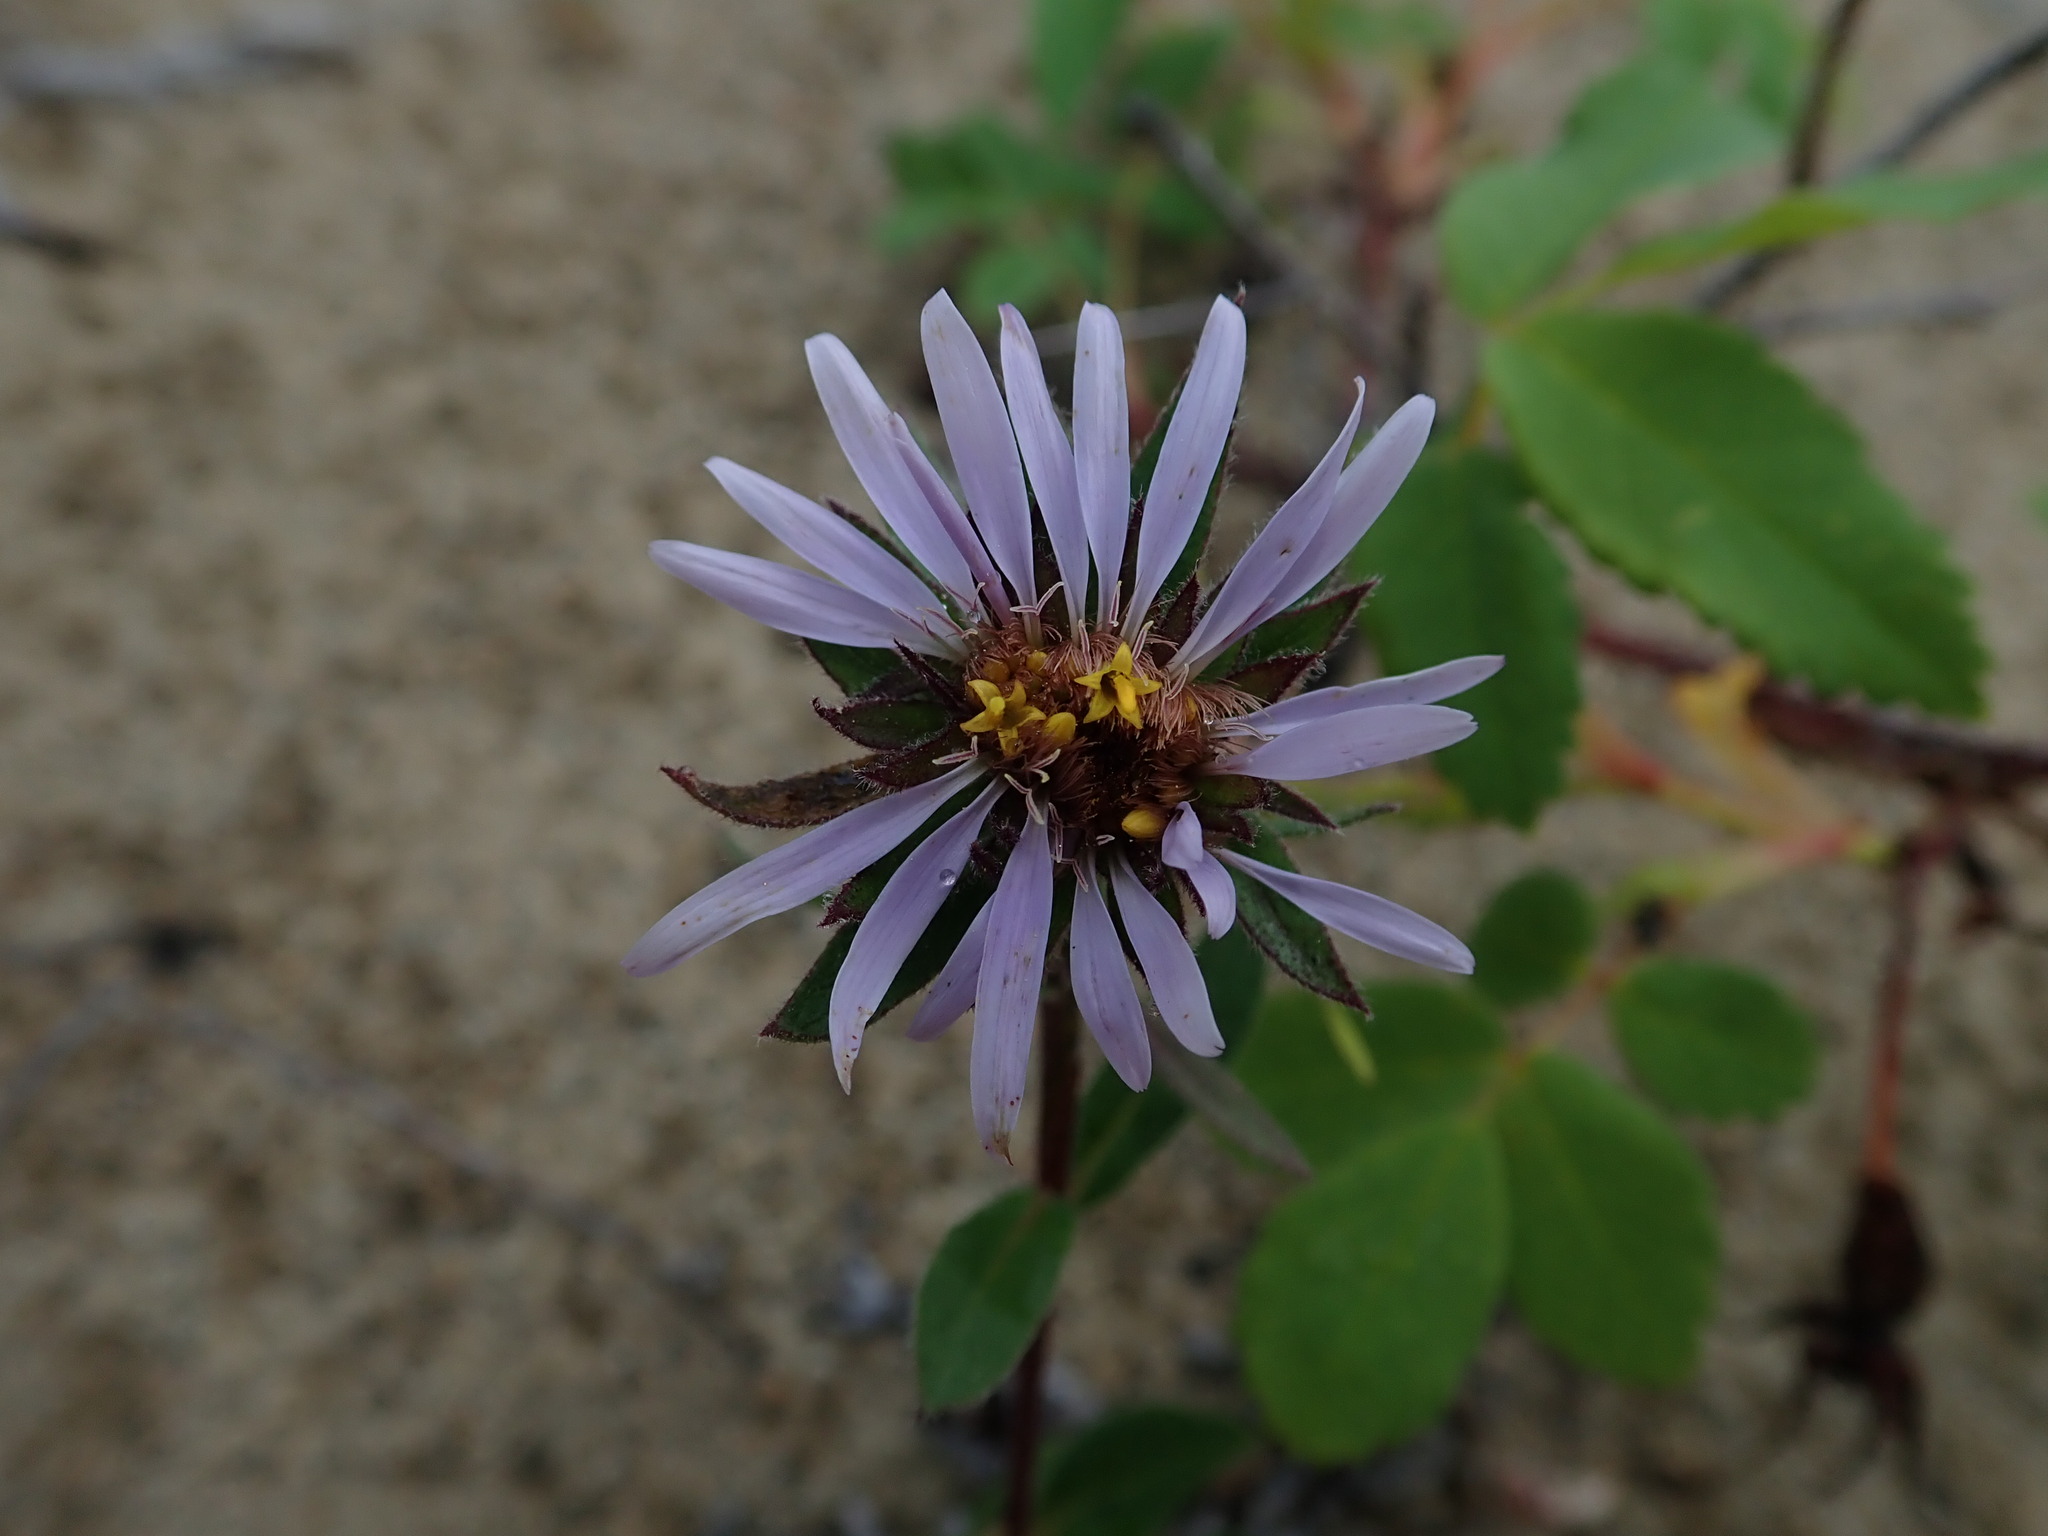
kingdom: Plantae
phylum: Tracheophyta
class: Magnoliopsida
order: Asterales
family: Asteraceae
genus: Eurybia
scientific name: Eurybia sibirica
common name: Arctic aster
